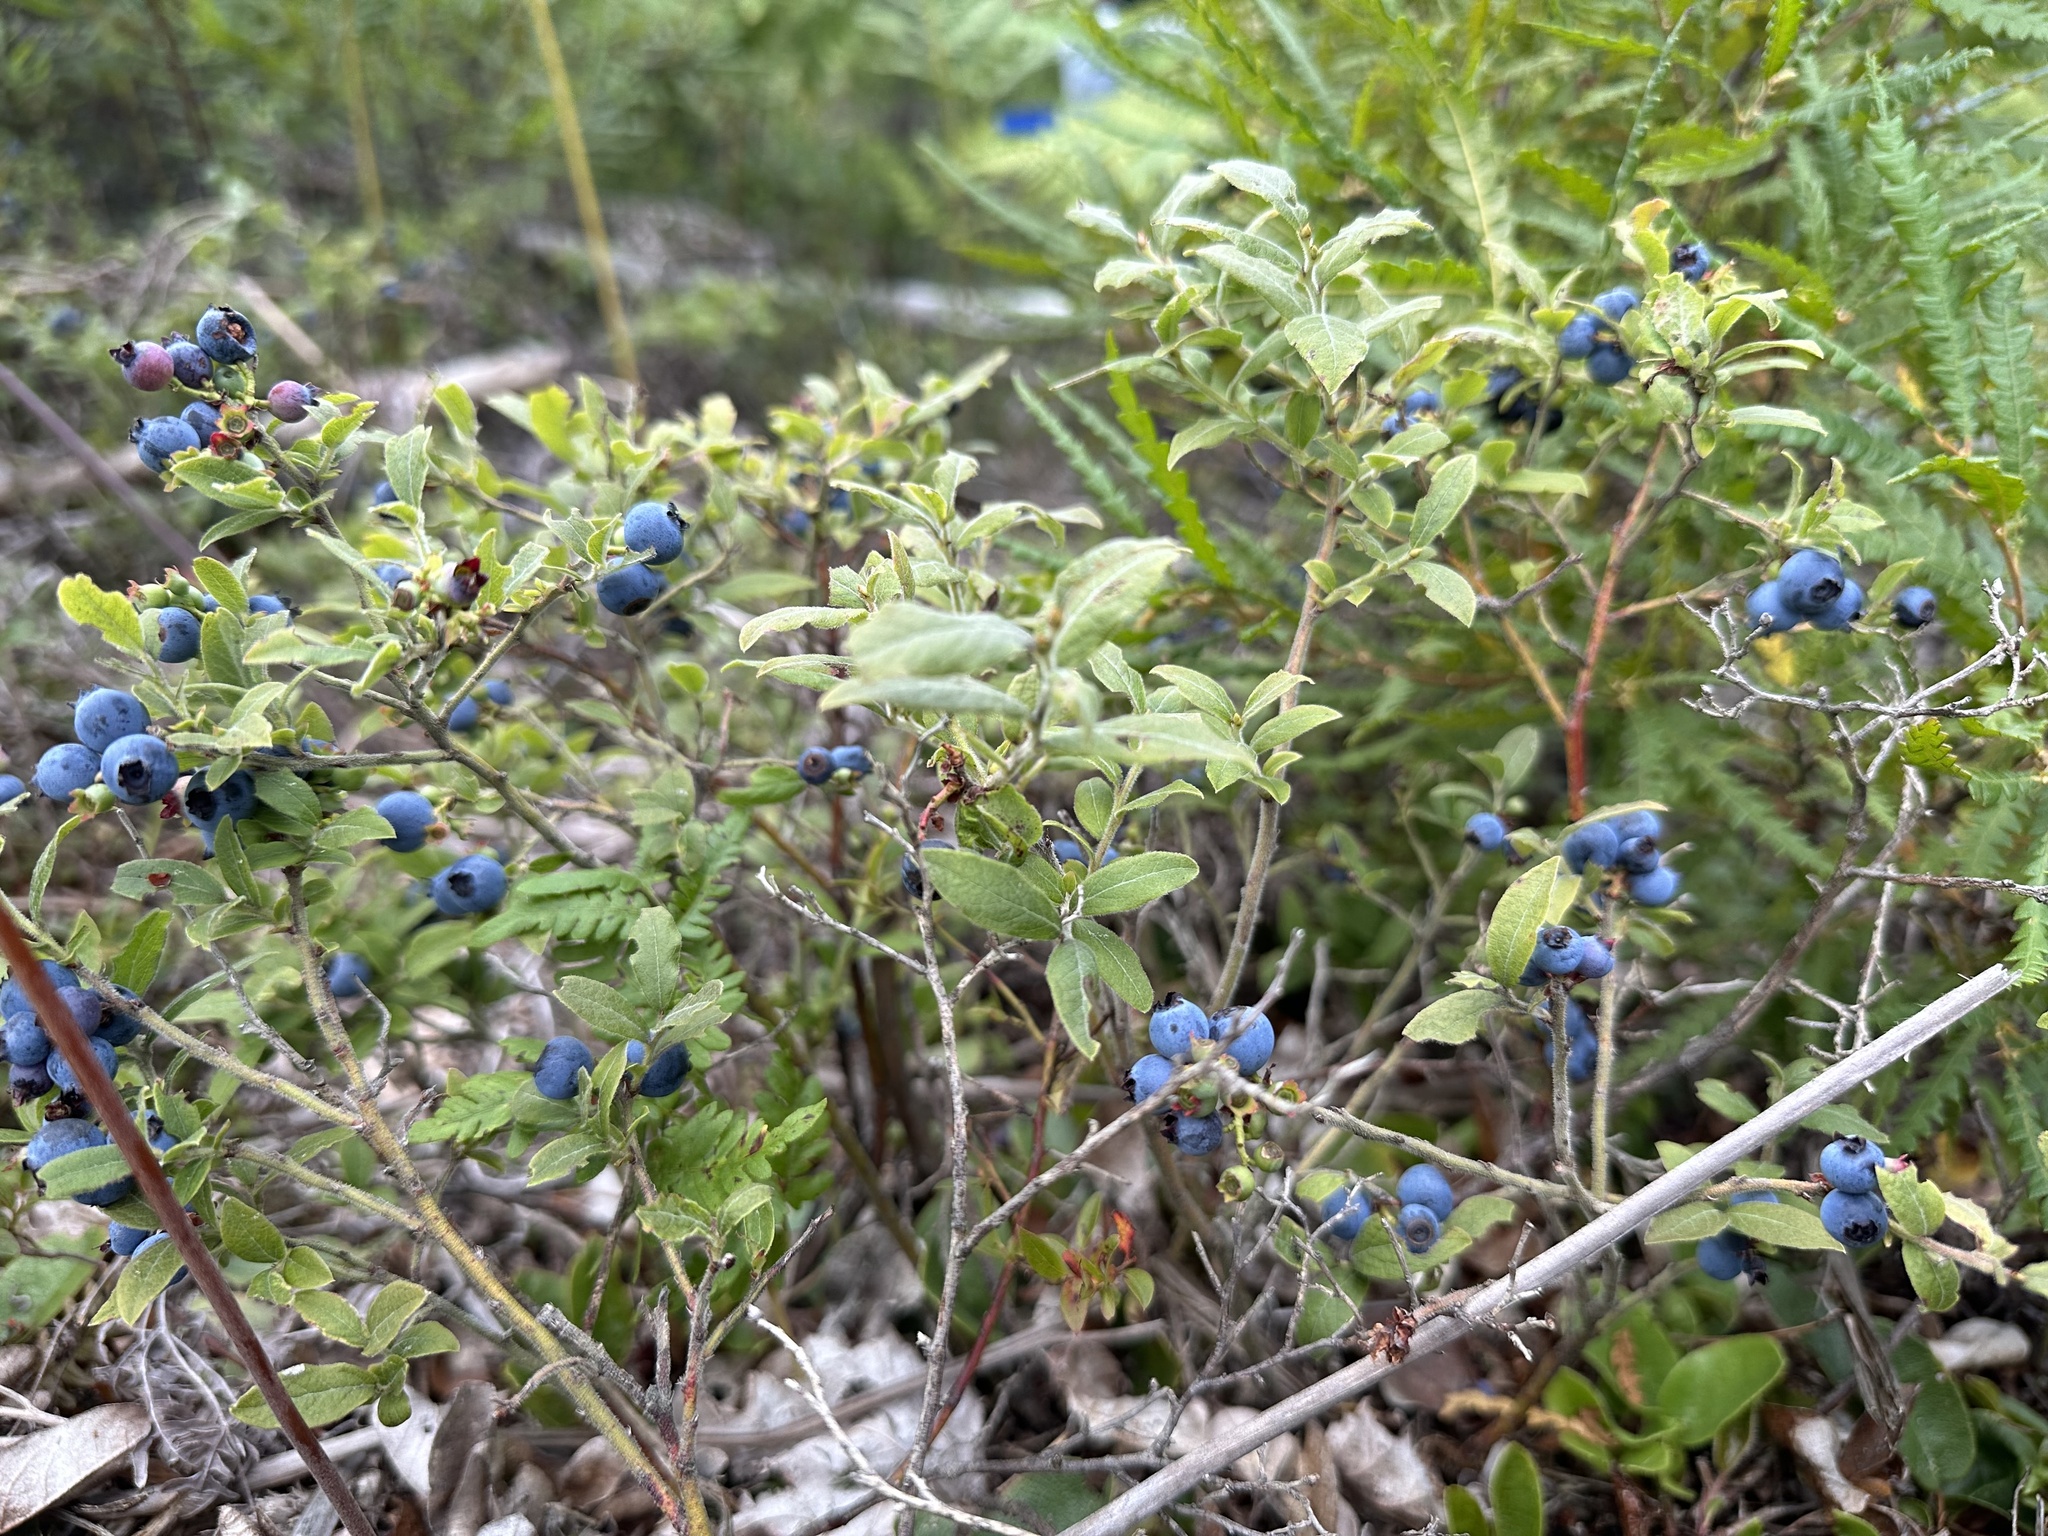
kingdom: Plantae
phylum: Tracheophyta
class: Magnoliopsida
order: Ericales
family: Ericaceae
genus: Vaccinium
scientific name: Vaccinium myrtilloides
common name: Canada blueberry
